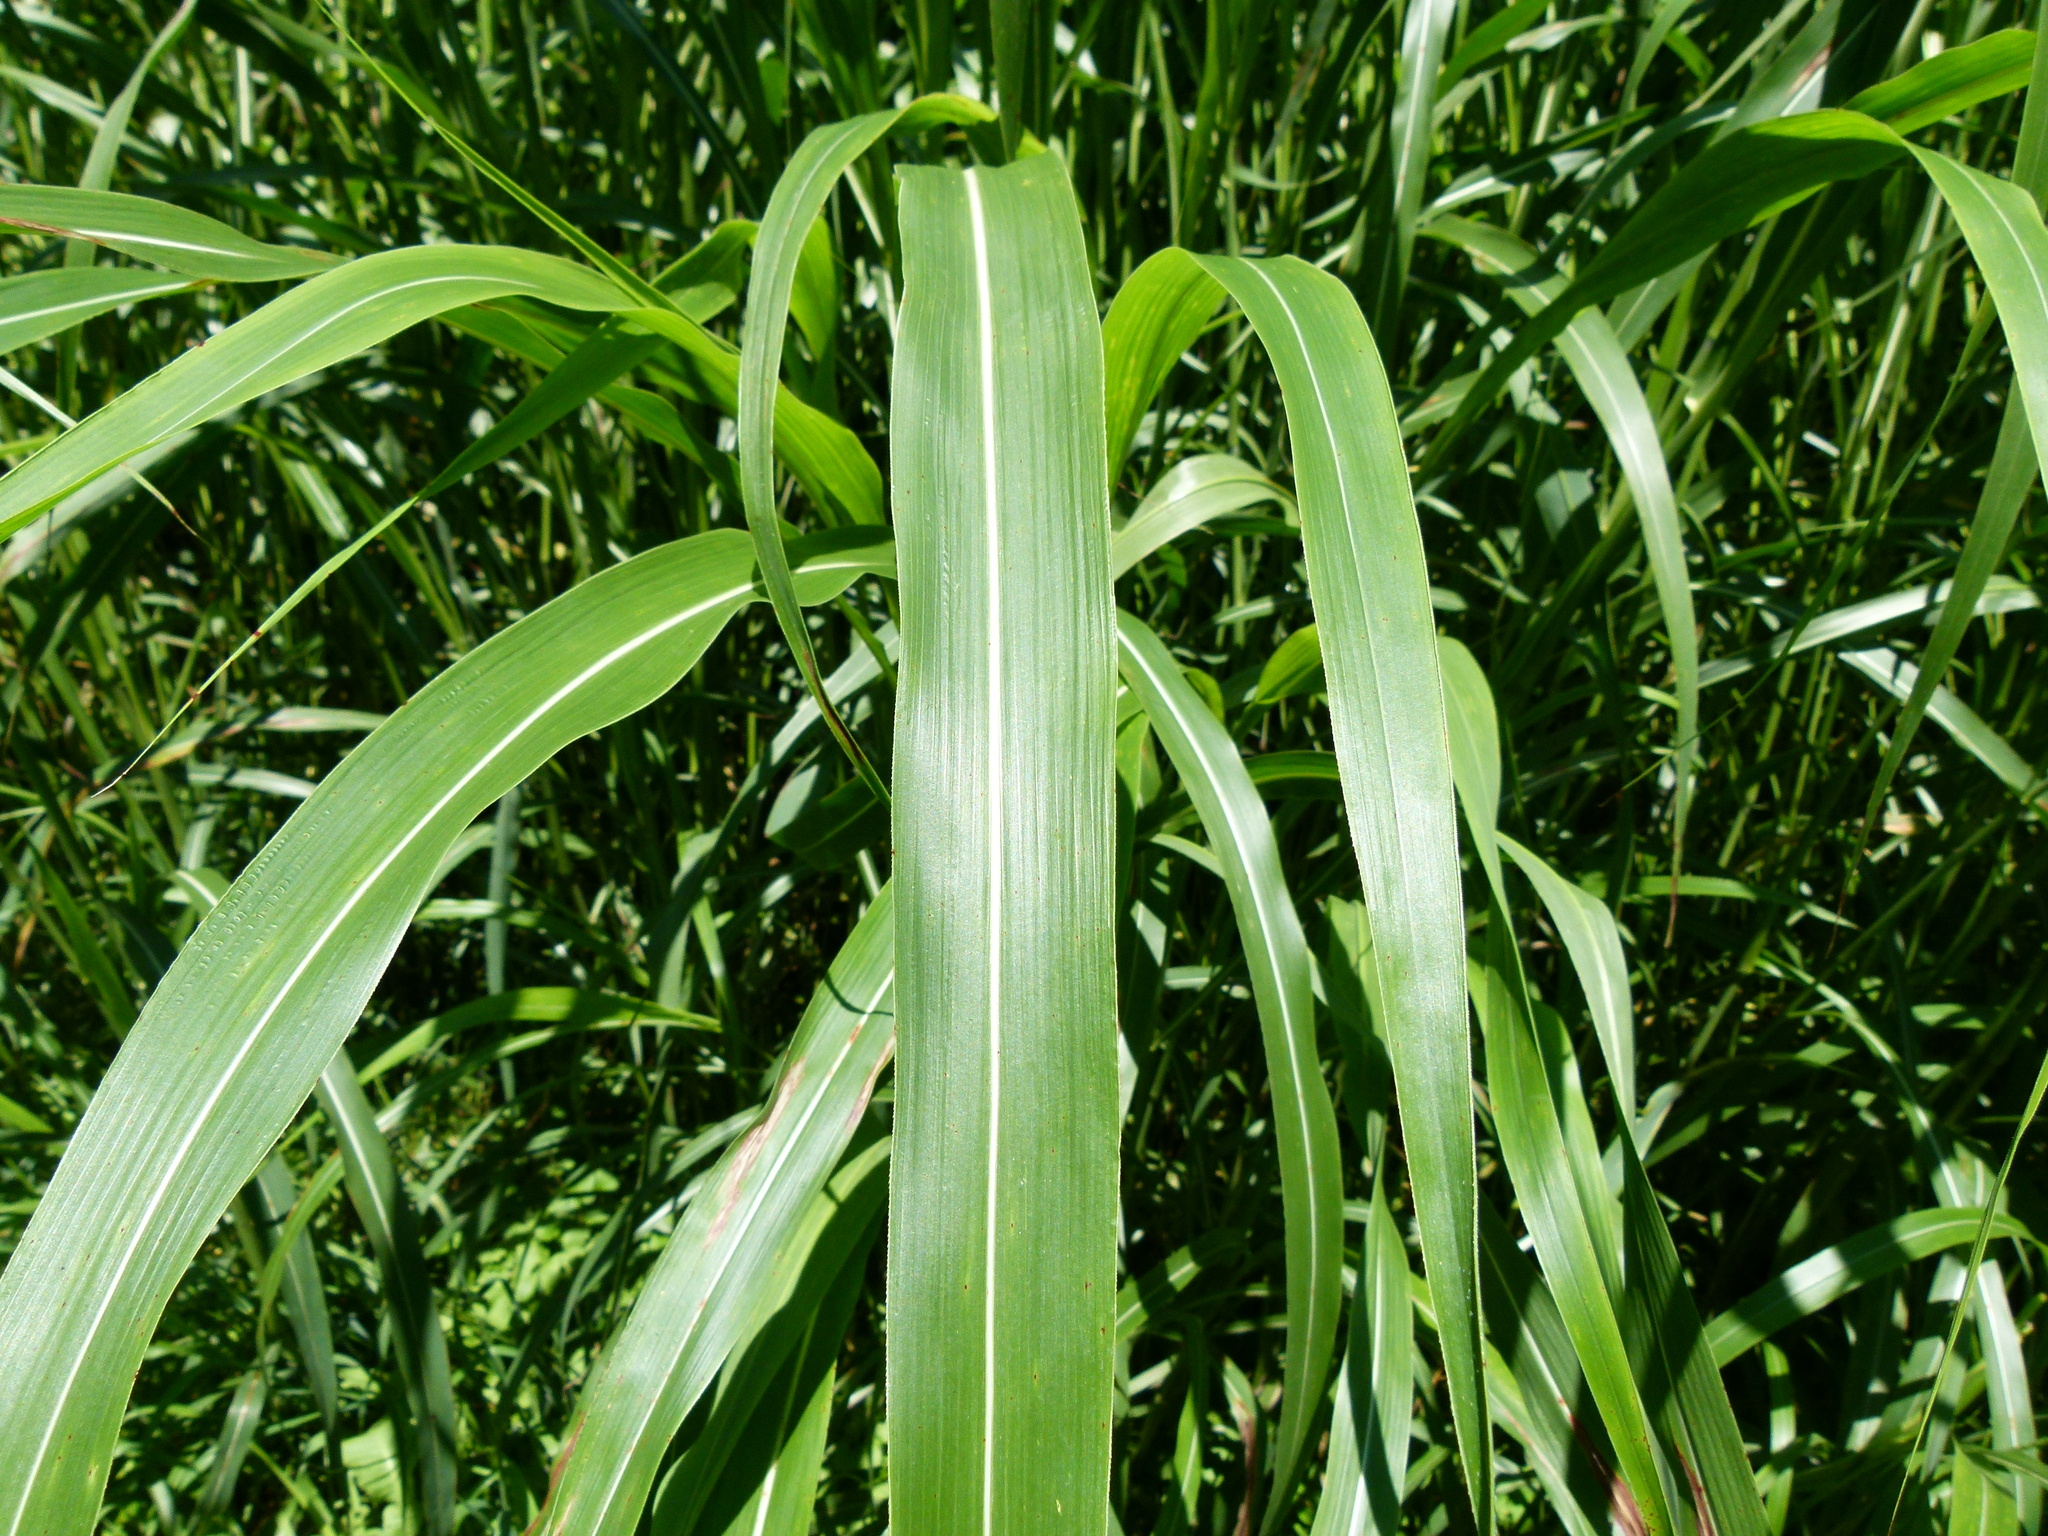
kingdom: Plantae
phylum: Tracheophyta
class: Liliopsida
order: Poales
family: Poaceae
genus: Sorghum
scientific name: Sorghum halepense
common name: Johnson-grass
